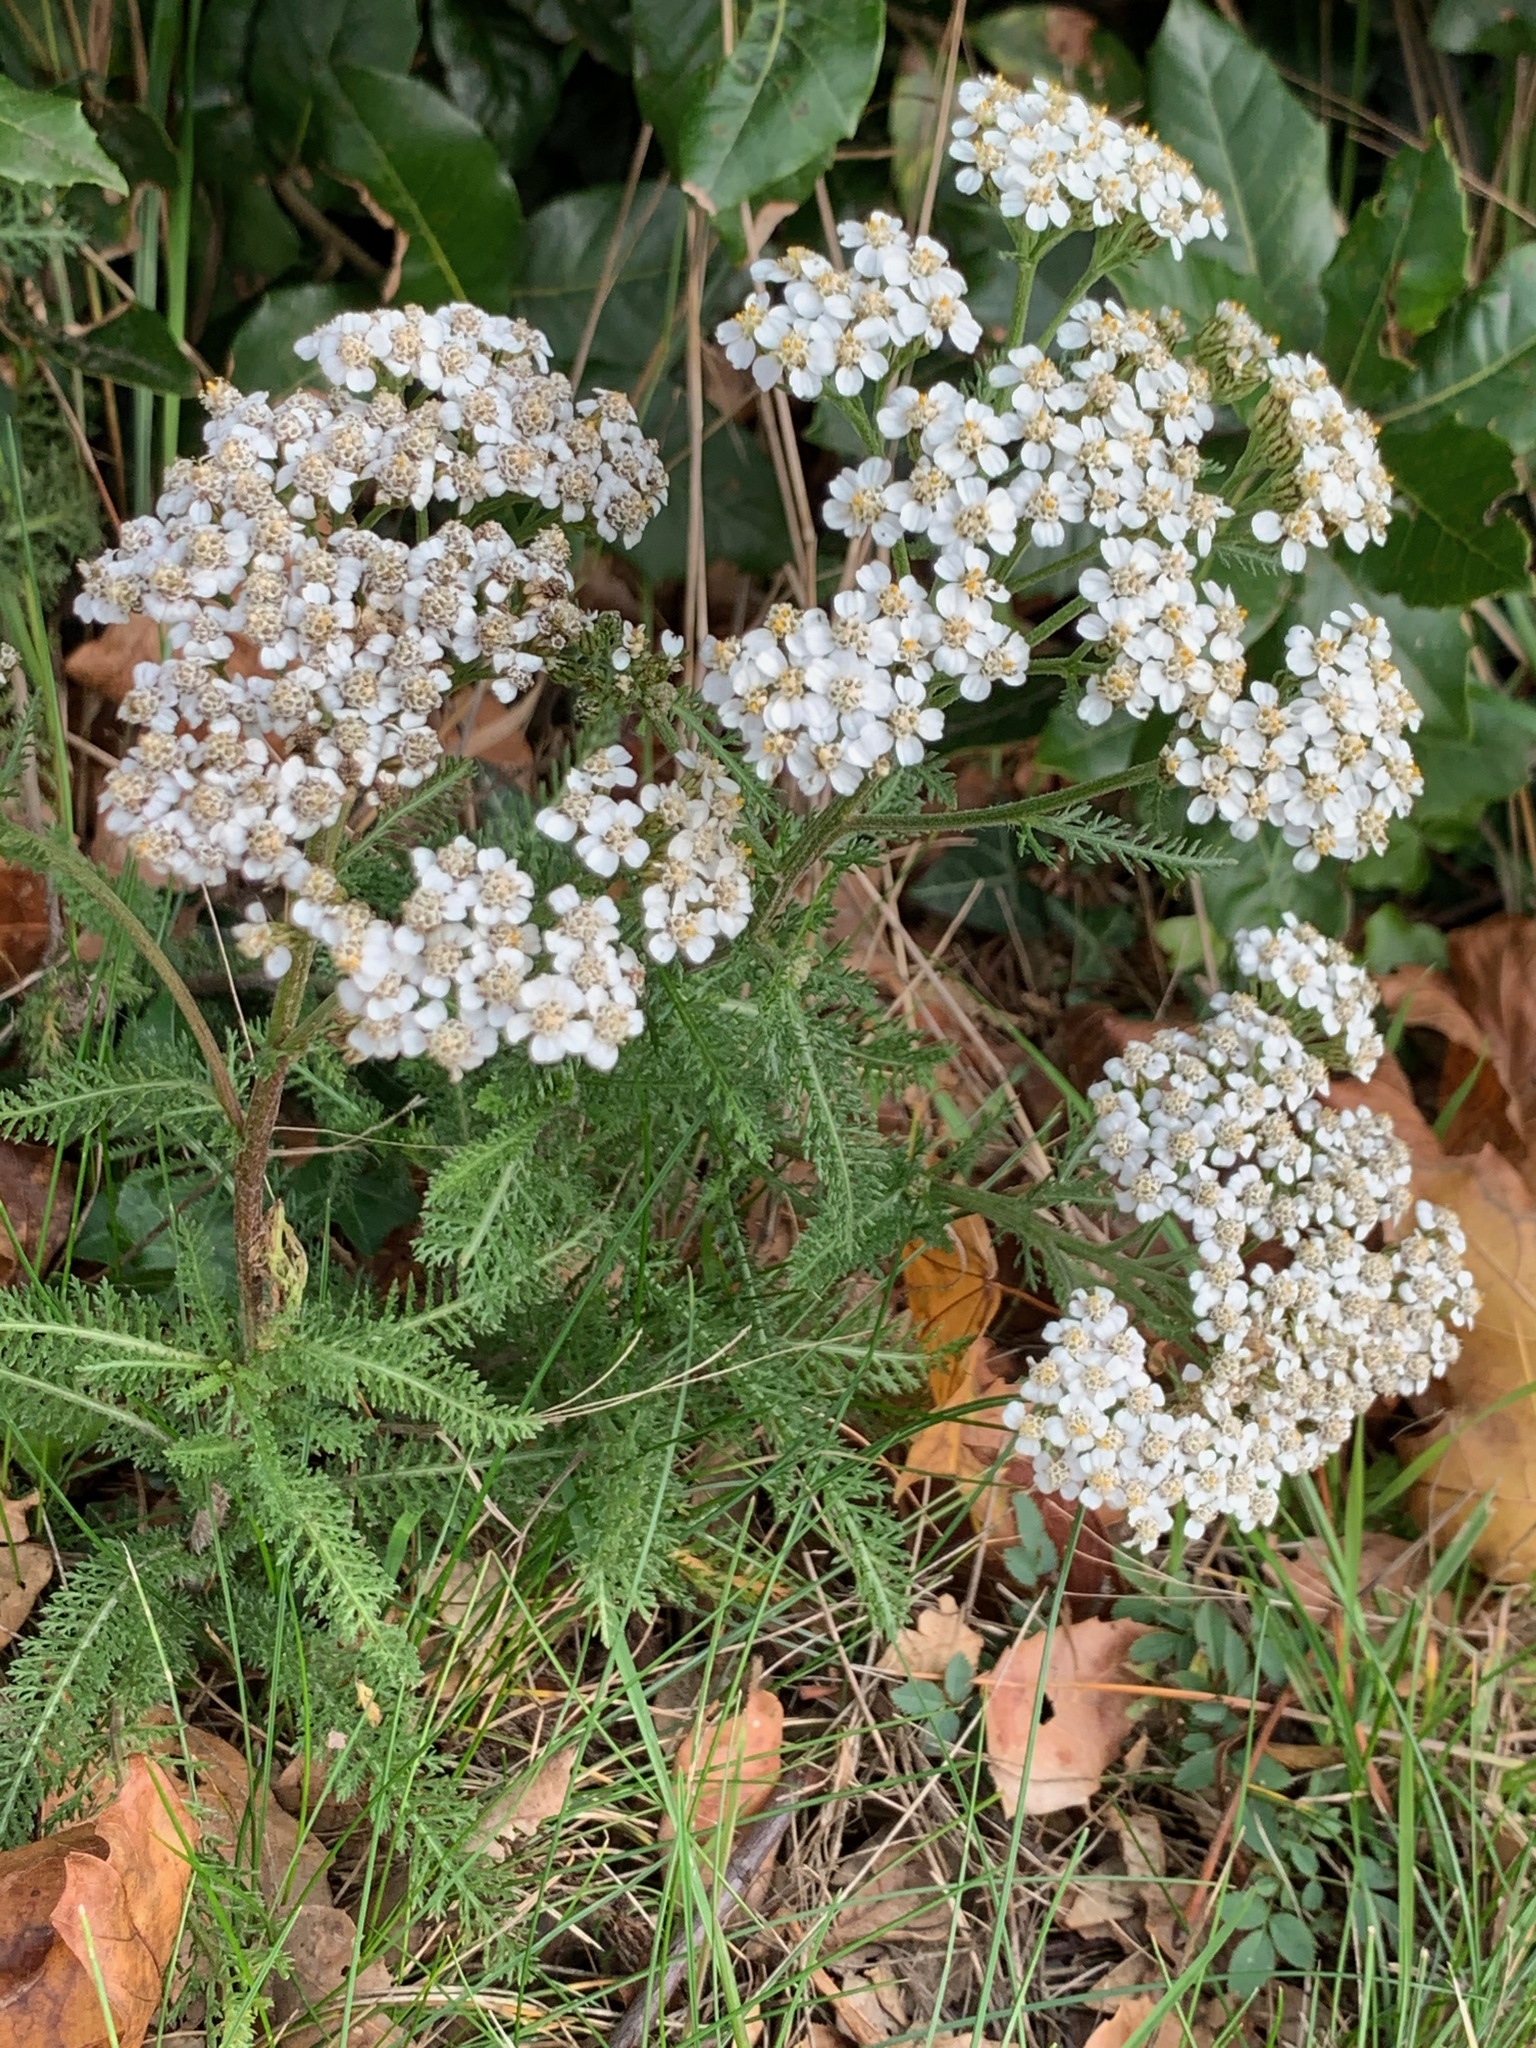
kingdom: Plantae
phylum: Tracheophyta
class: Magnoliopsida
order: Asterales
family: Asteraceae
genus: Achillea
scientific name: Achillea millefolium
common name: Yarrow
